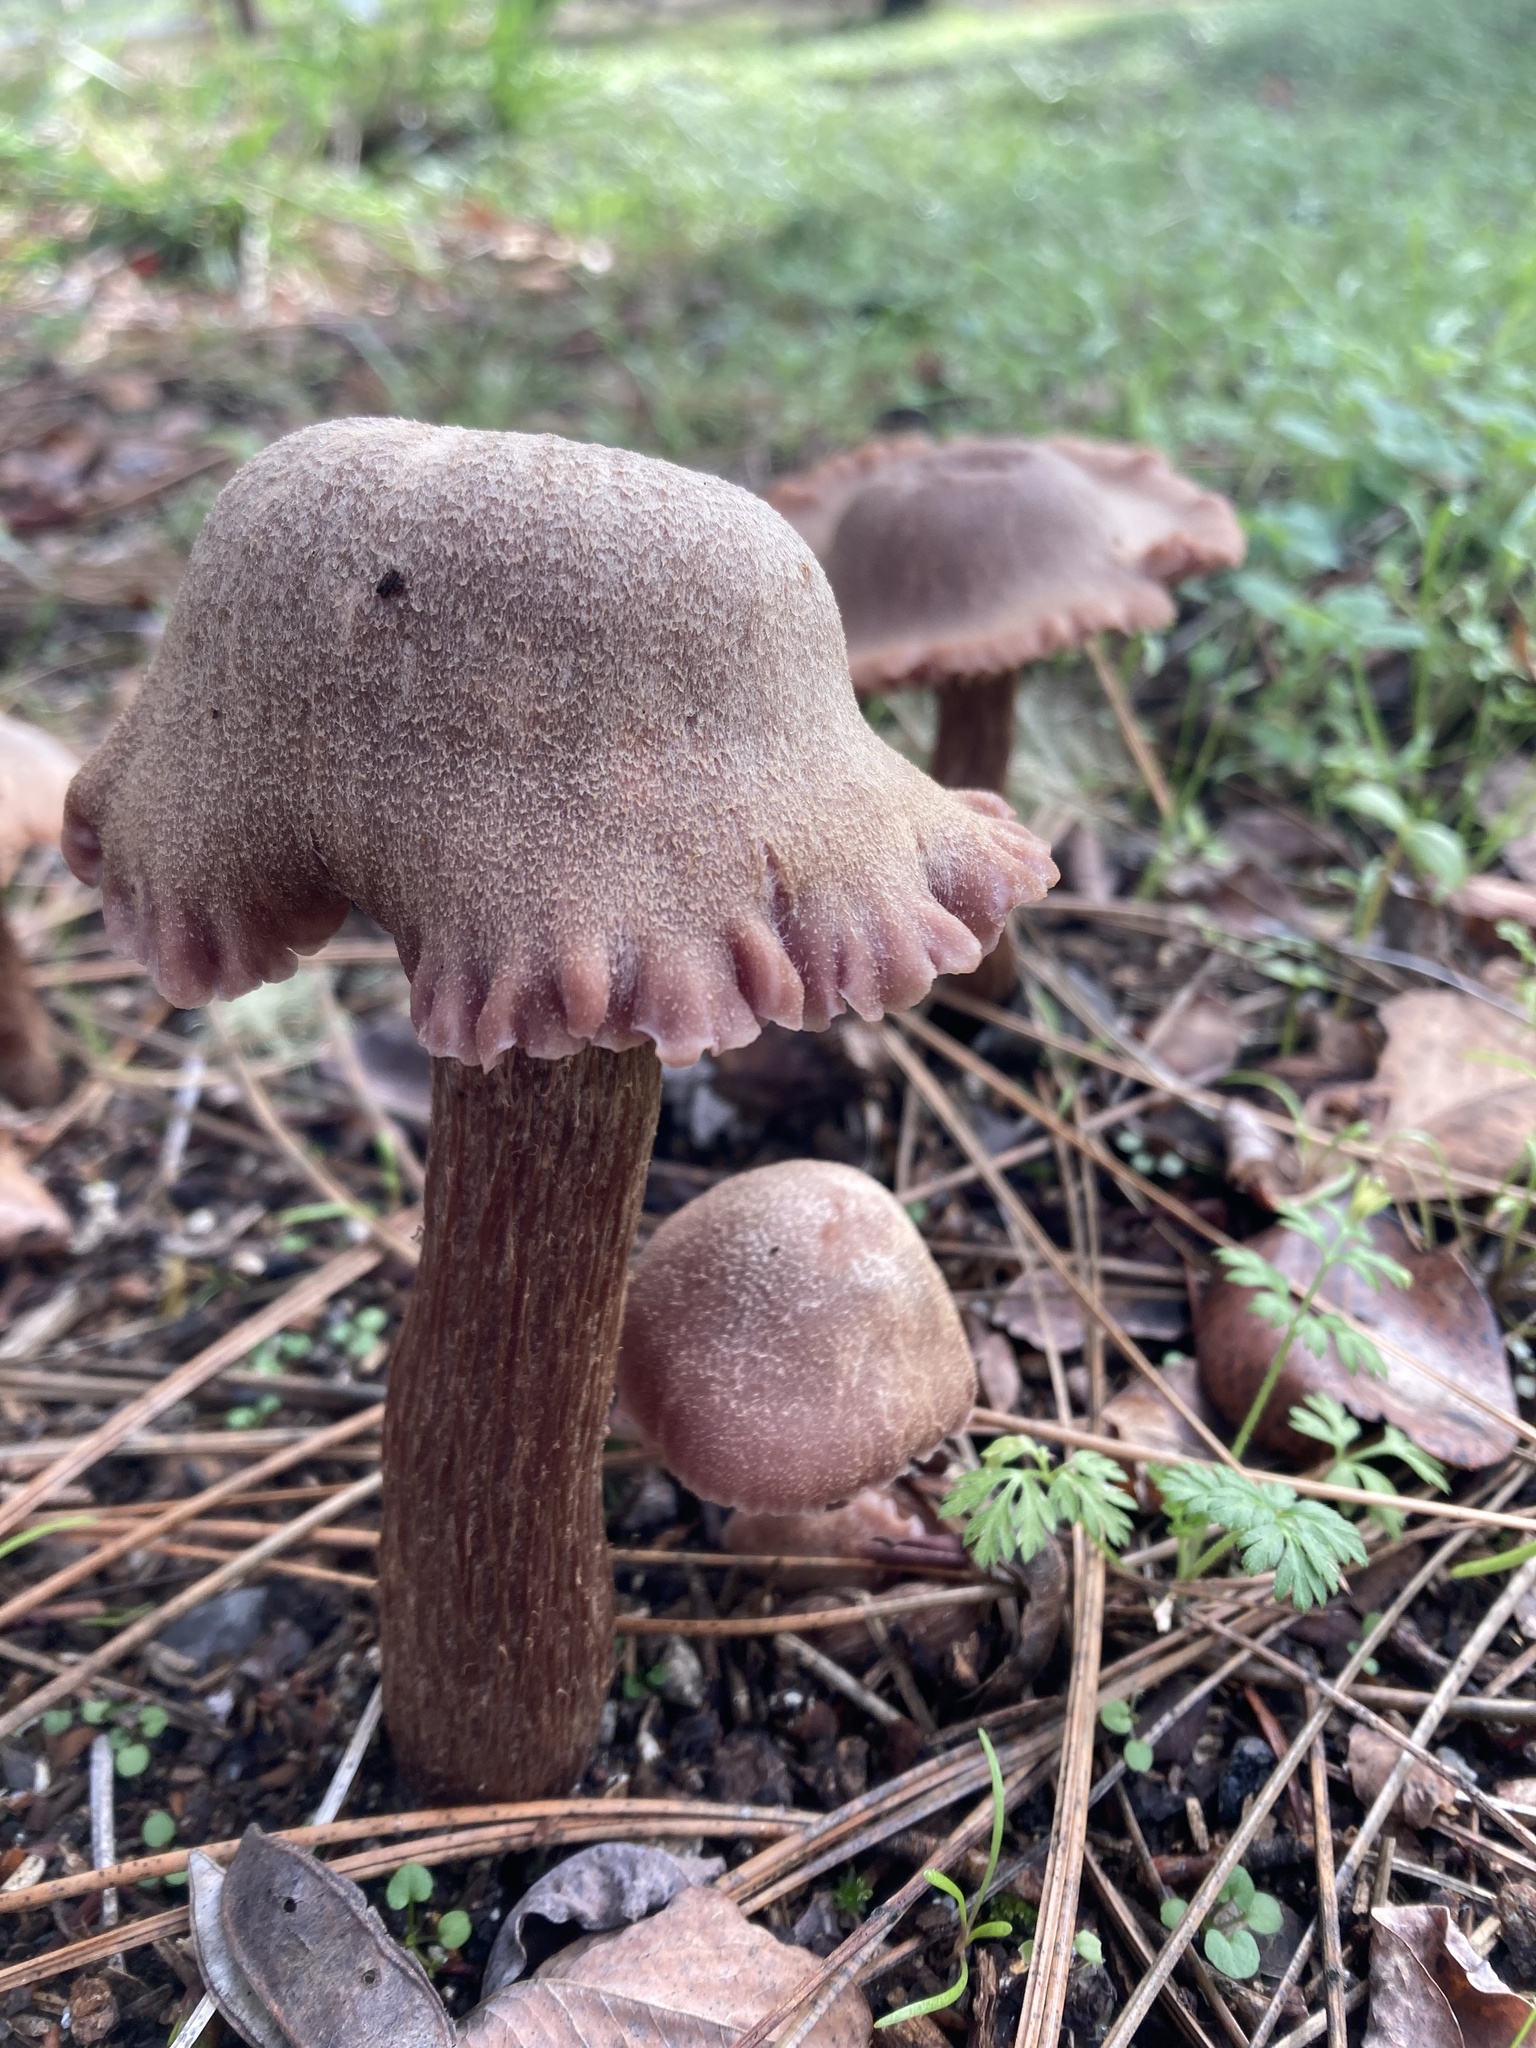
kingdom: Fungi
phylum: Basidiomycota
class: Agaricomycetes
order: Agaricales
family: Hydnangiaceae
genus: Laccaria
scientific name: Laccaria amethysteo-occidentalis
